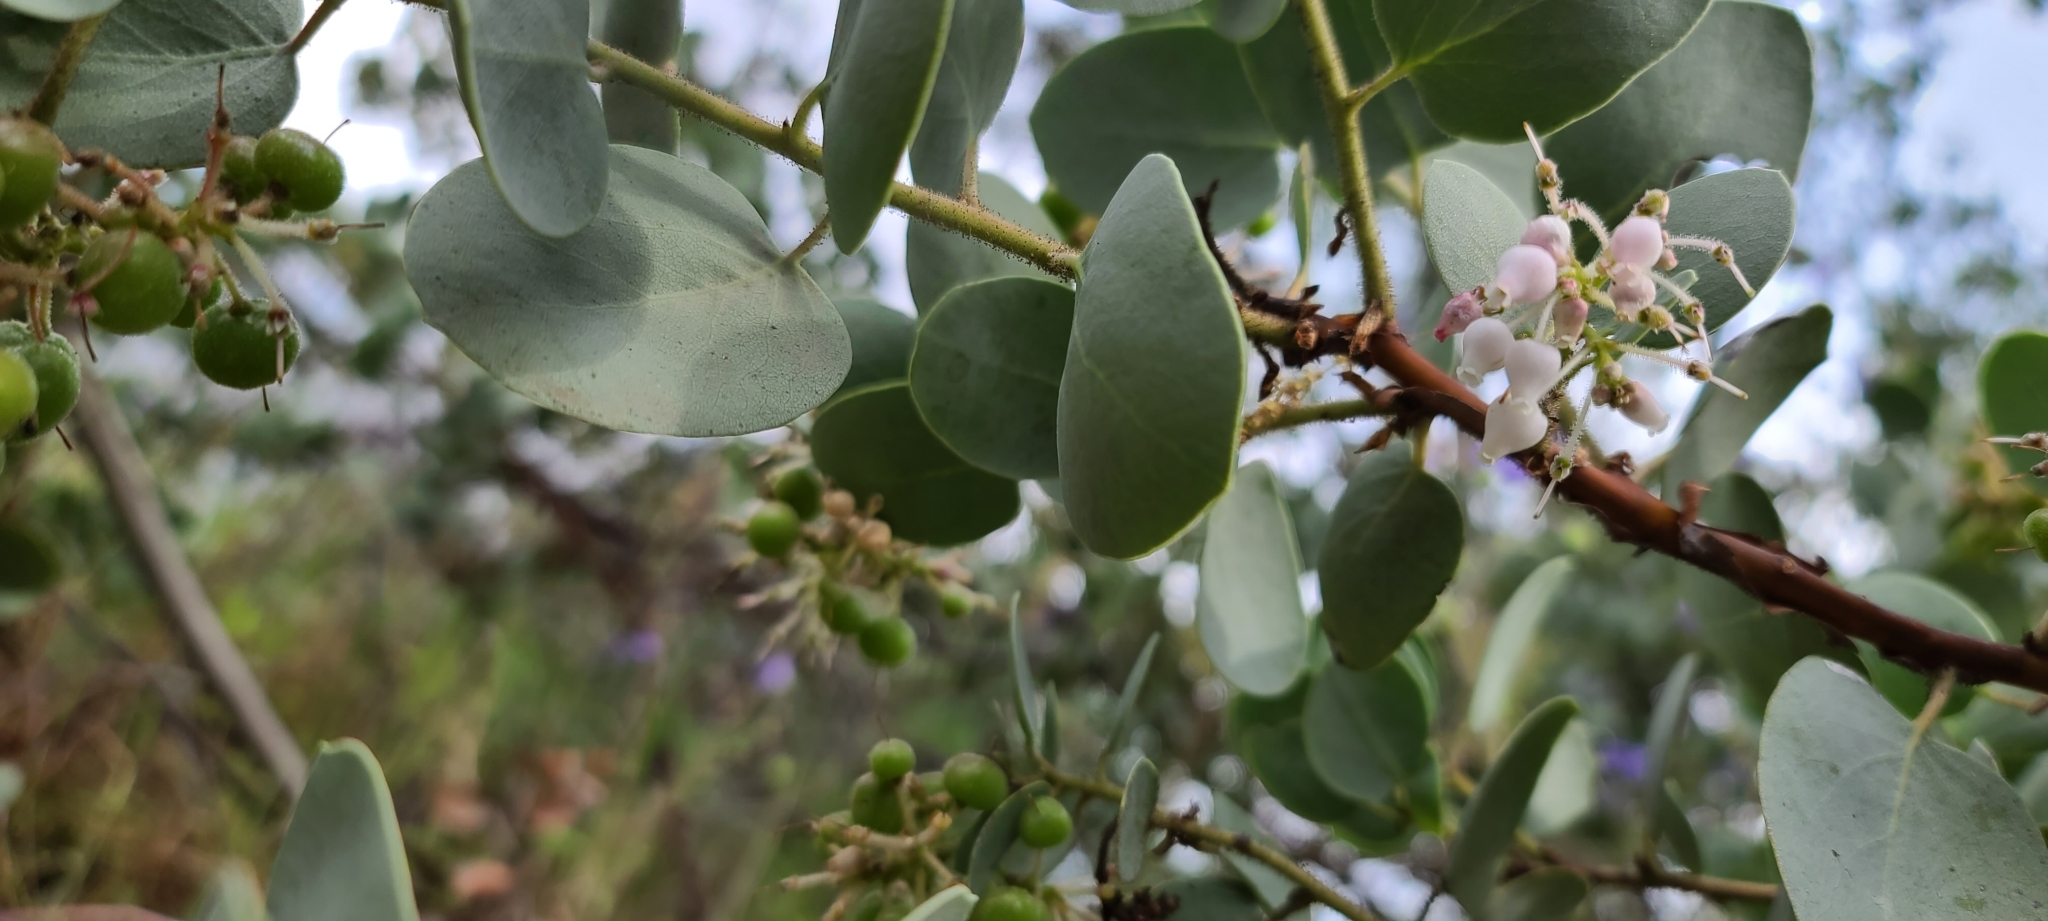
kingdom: Plantae
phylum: Tracheophyta
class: Magnoliopsida
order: Ericales
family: Ericaceae
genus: Arctostaphylos
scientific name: Arctostaphylos viscida
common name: White-leaf manzanita
